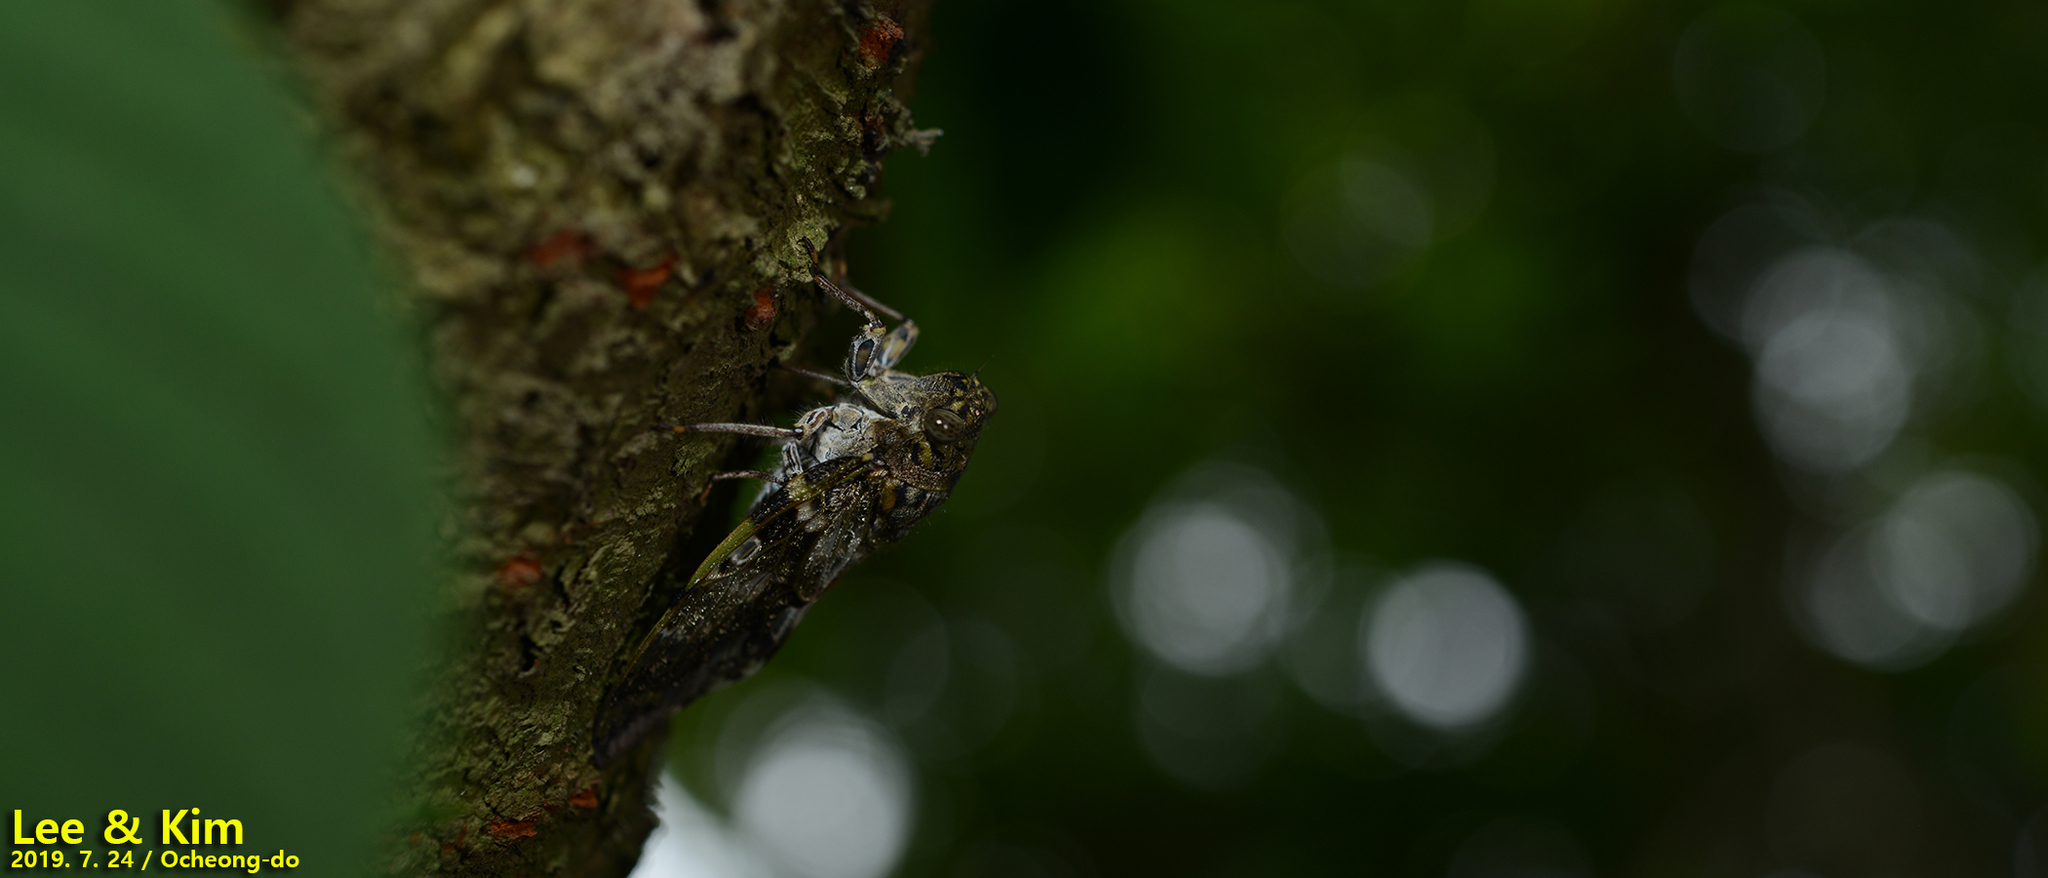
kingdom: Animalia
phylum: Arthropoda
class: Insecta
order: Hemiptera
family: Cicadidae
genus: Platypleura
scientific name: Platypleura kaempferi
